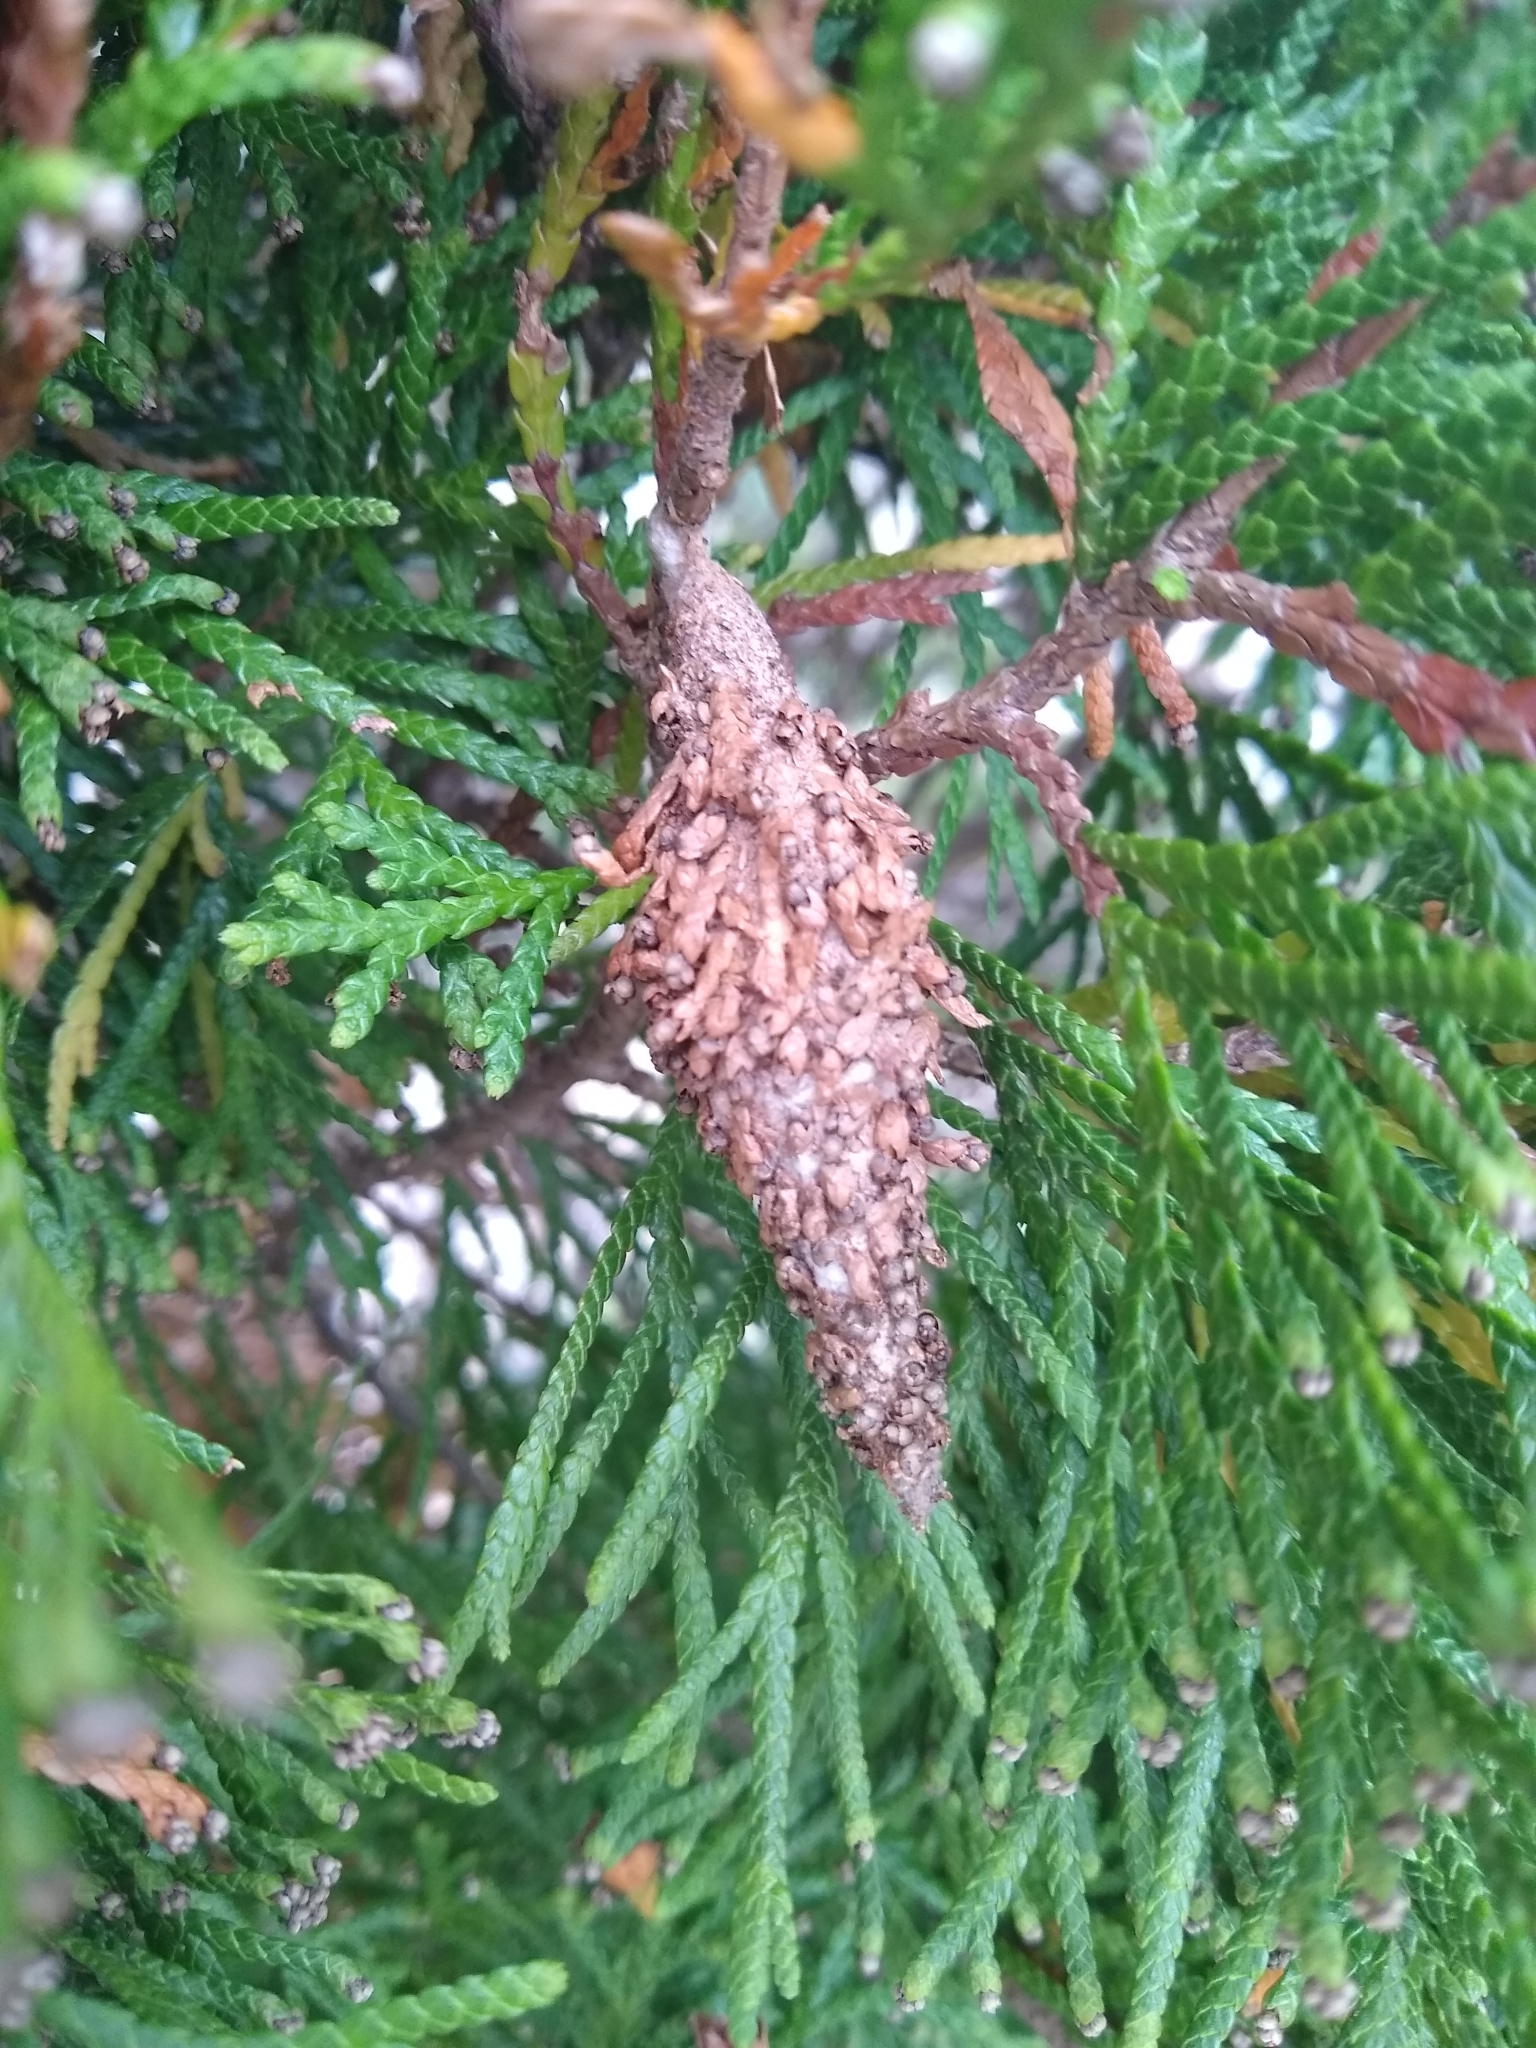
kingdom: Animalia
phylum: Arthropoda
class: Insecta
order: Lepidoptera
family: Psychidae
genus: Thyridopteryx
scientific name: Thyridopteryx ephemeraeformis
